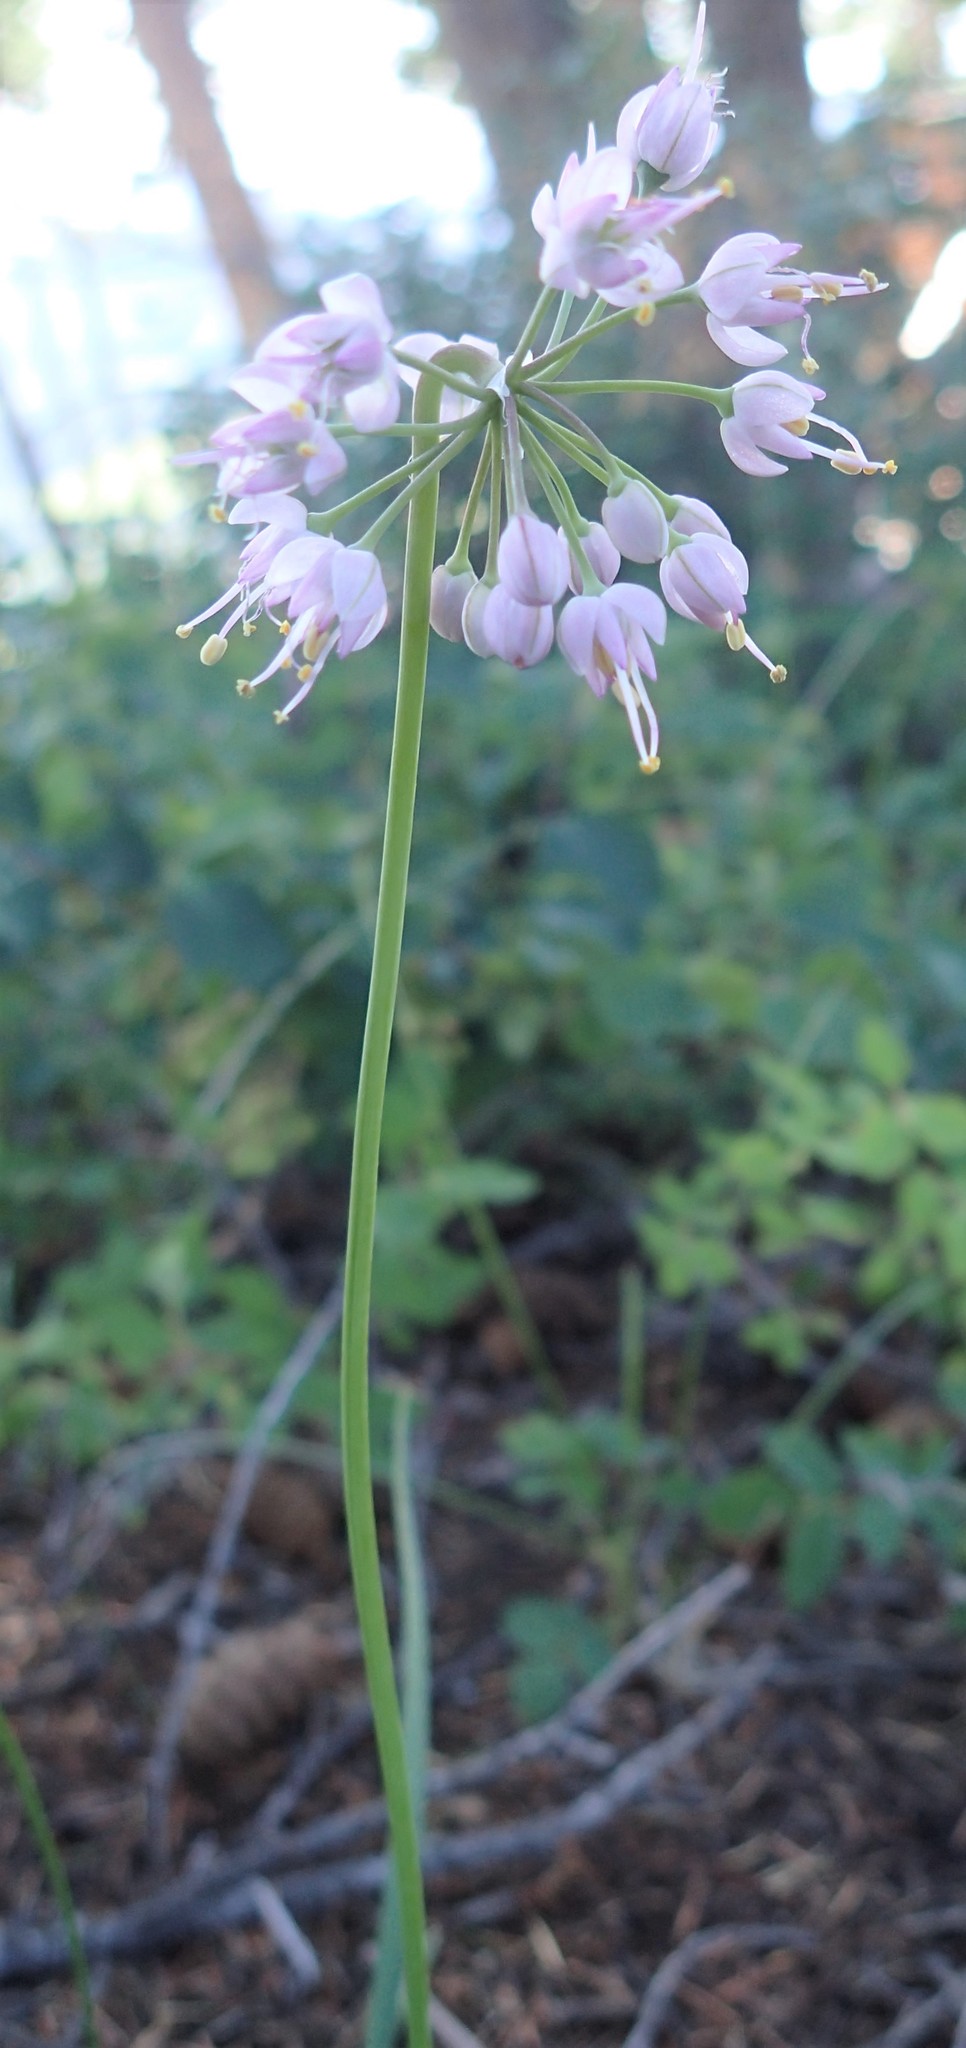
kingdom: Plantae
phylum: Tracheophyta
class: Liliopsida
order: Asparagales
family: Amaryllidaceae
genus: Allium
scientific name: Allium cernuum
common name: Nodding onion
